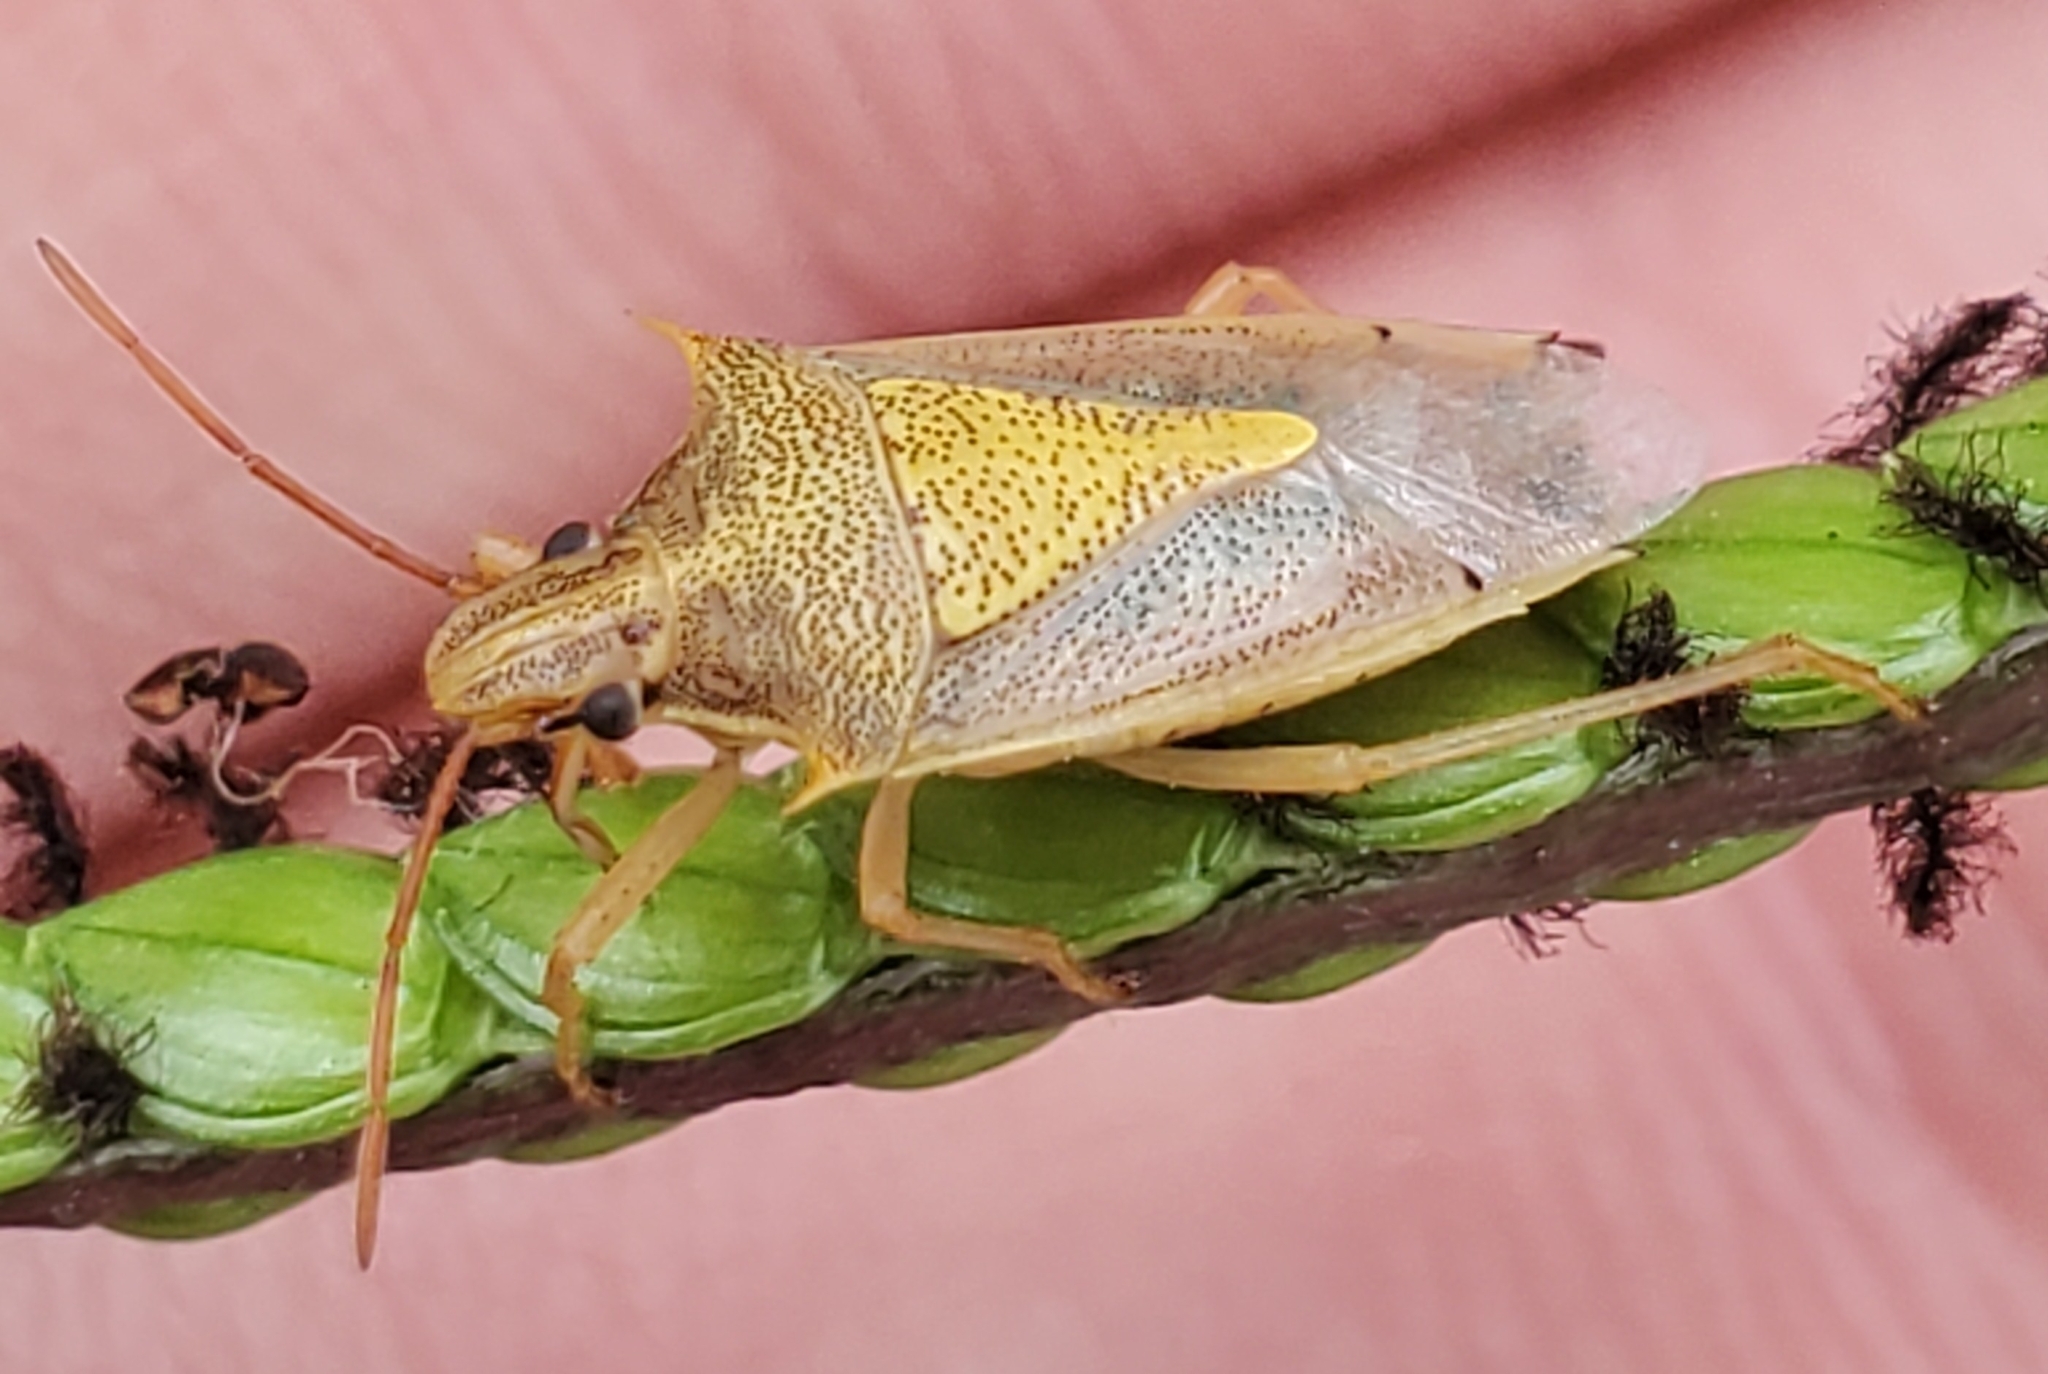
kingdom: Animalia
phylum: Arthropoda
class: Insecta
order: Hemiptera
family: Pentatomidae
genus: Oebalus
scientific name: Oebalus pugnax
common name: Rice stink bug
